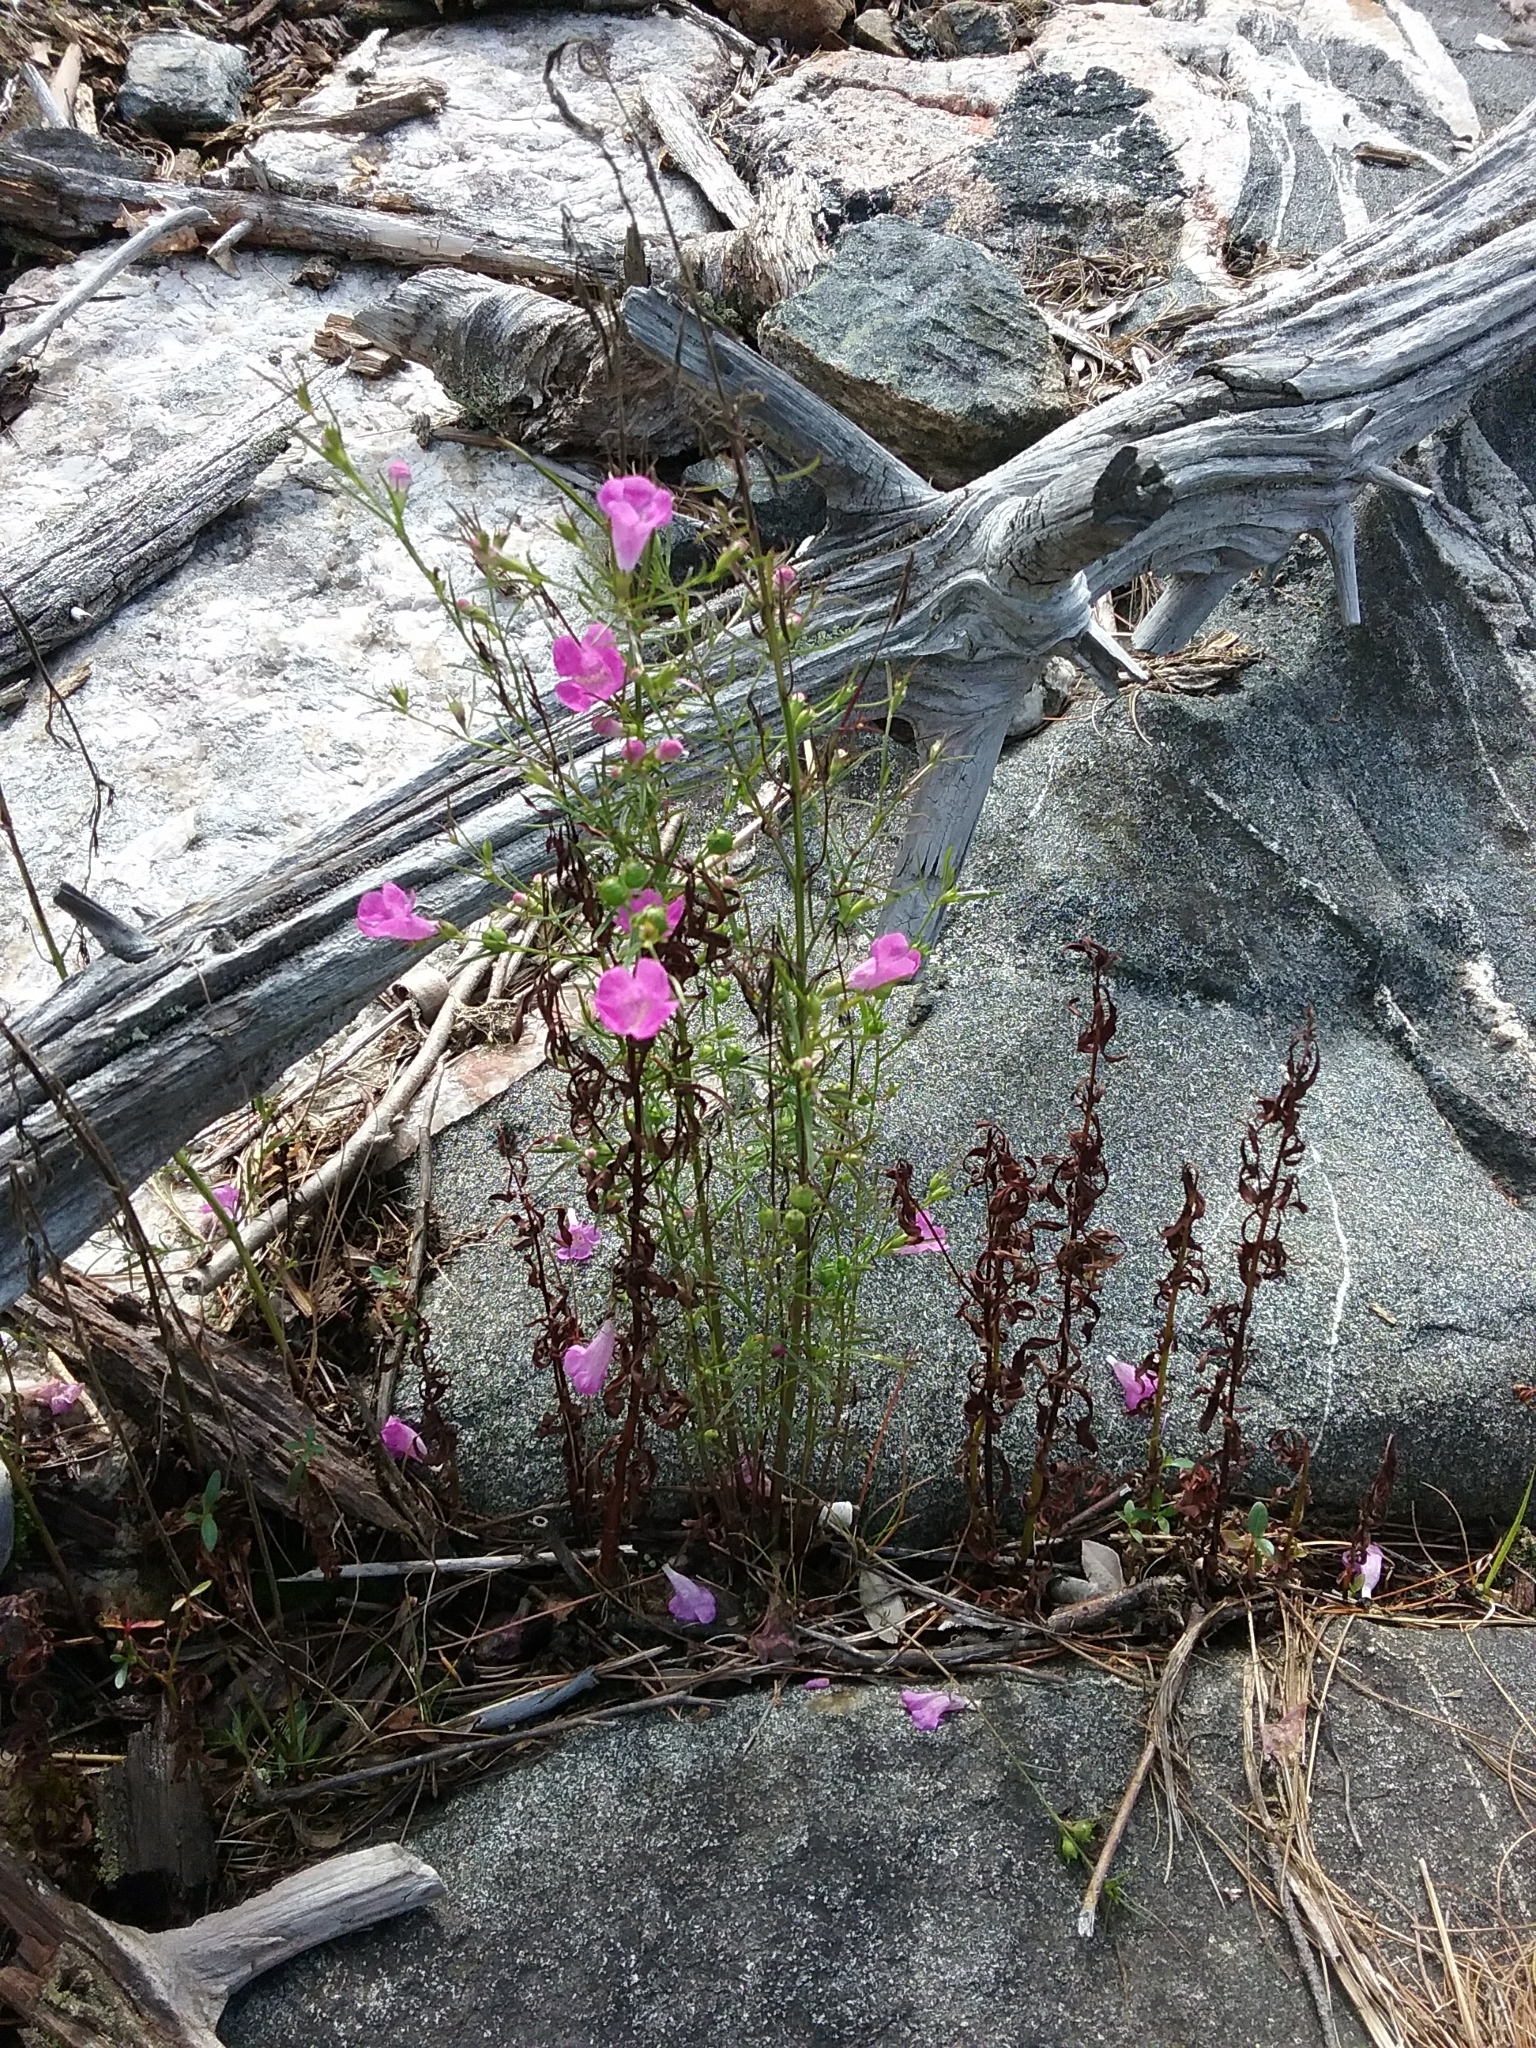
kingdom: Plantae
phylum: Tracheophyta
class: Magnoliopsida
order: Lamiales
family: Orobanchaceae
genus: Agalinis
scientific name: Agalinis purpurea
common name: Purple false foxglove
